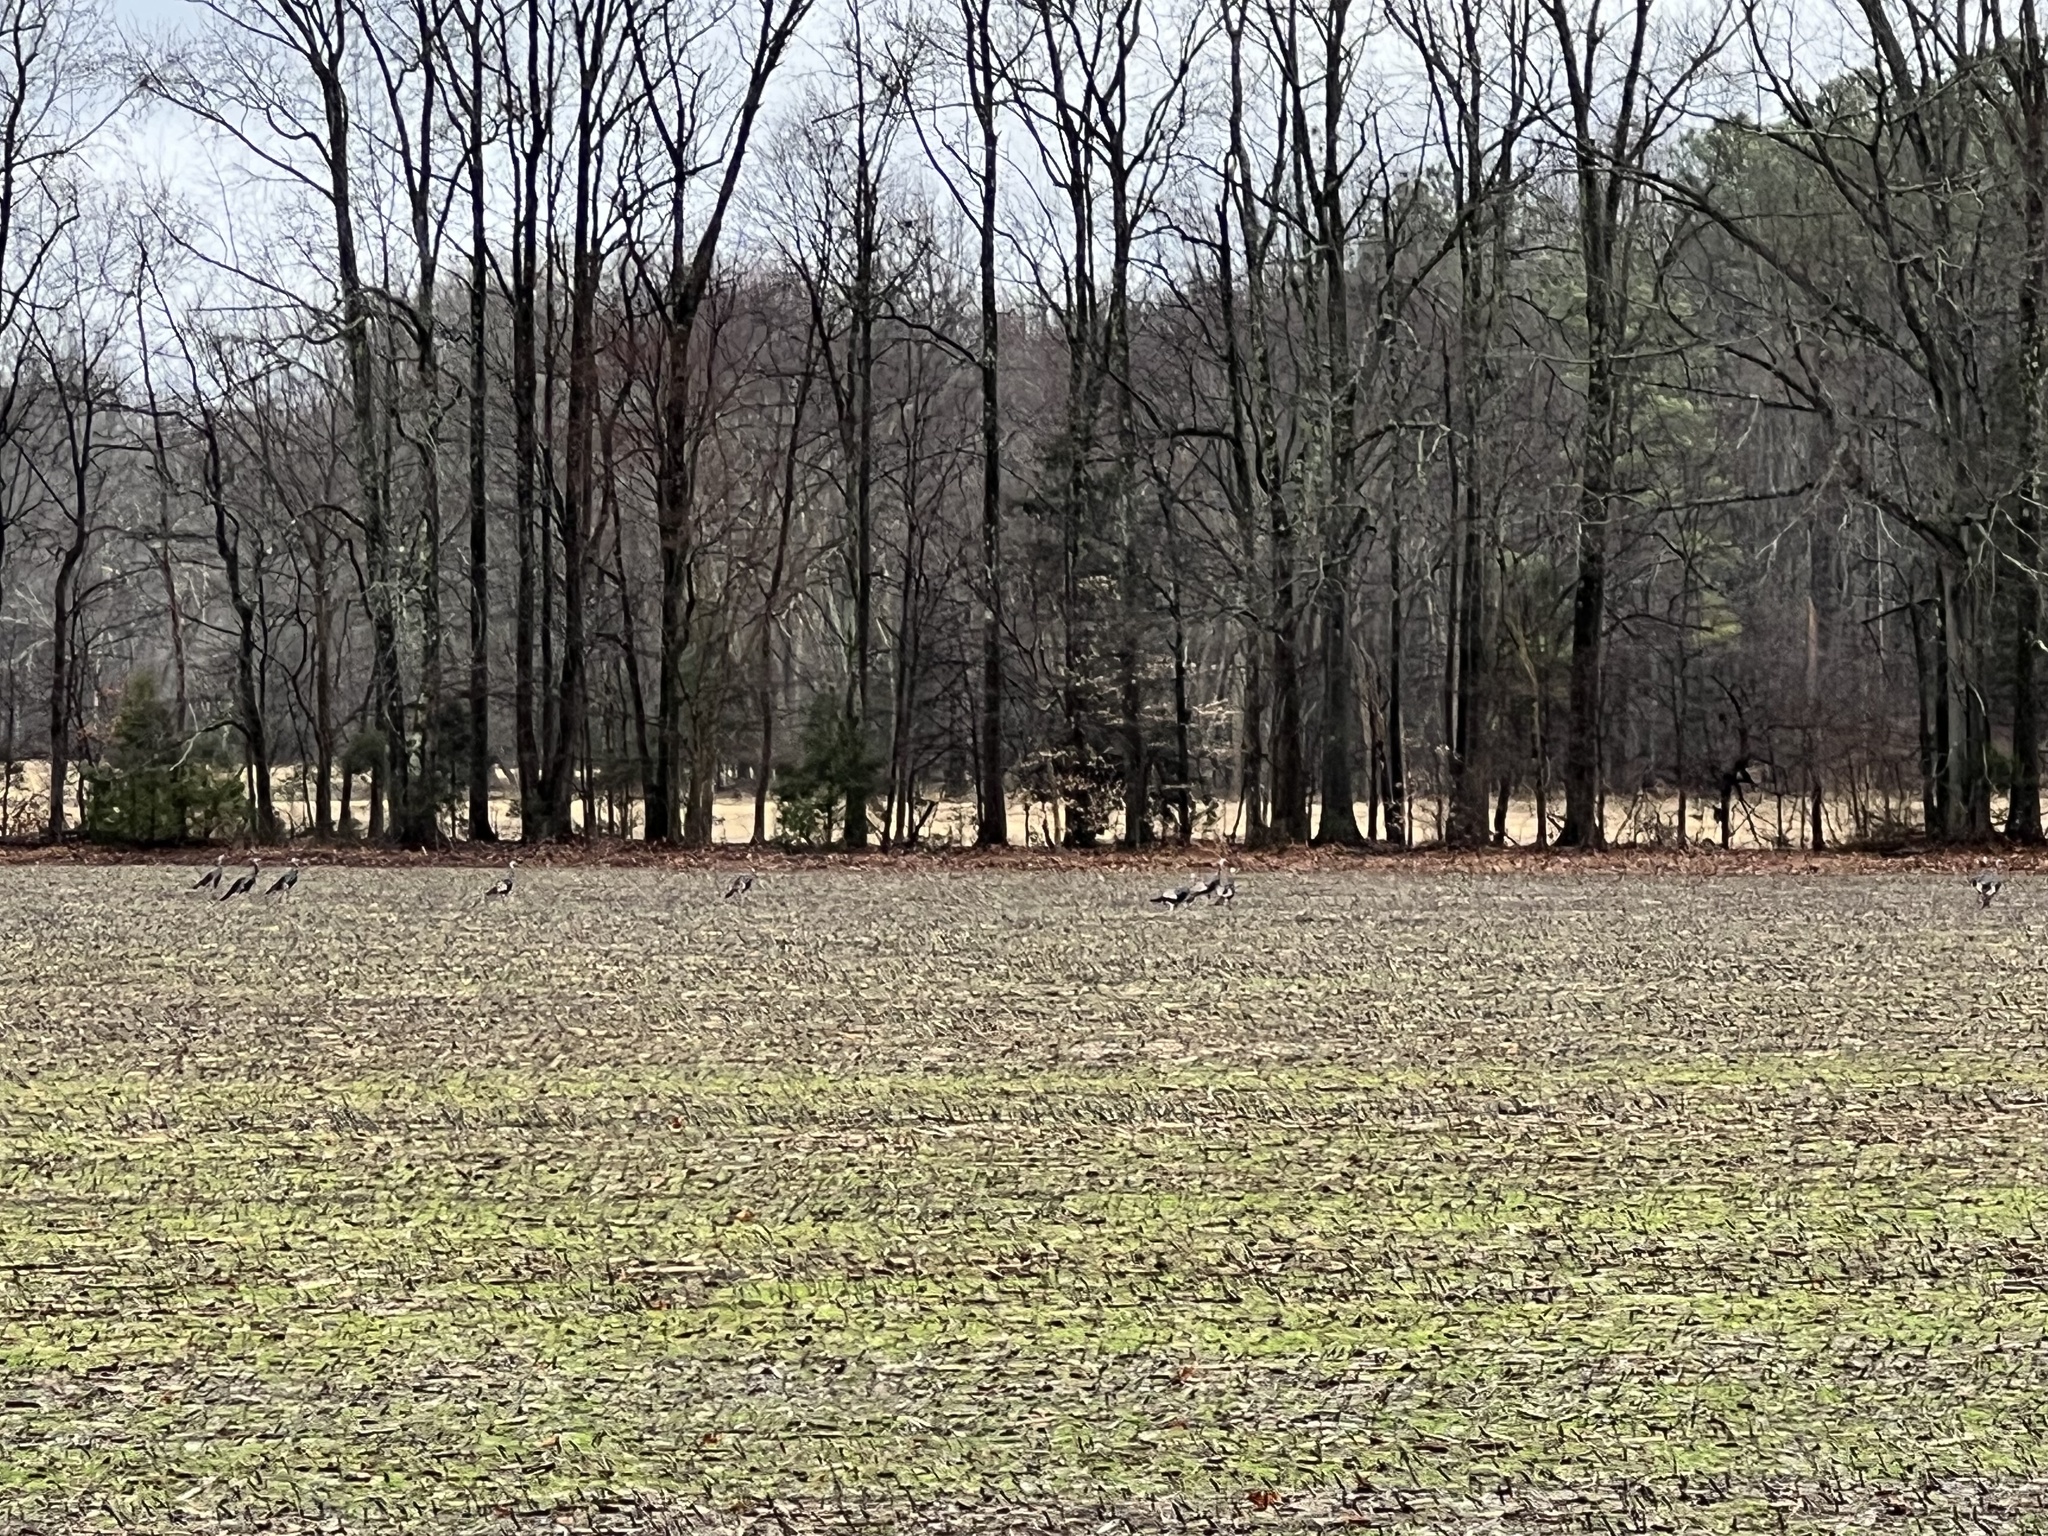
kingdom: Animalia
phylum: Chordata
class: Aves
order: Galliformes
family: Phasianidae
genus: Meleagris
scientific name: Meleagris gallopavo
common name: Wild turkey
